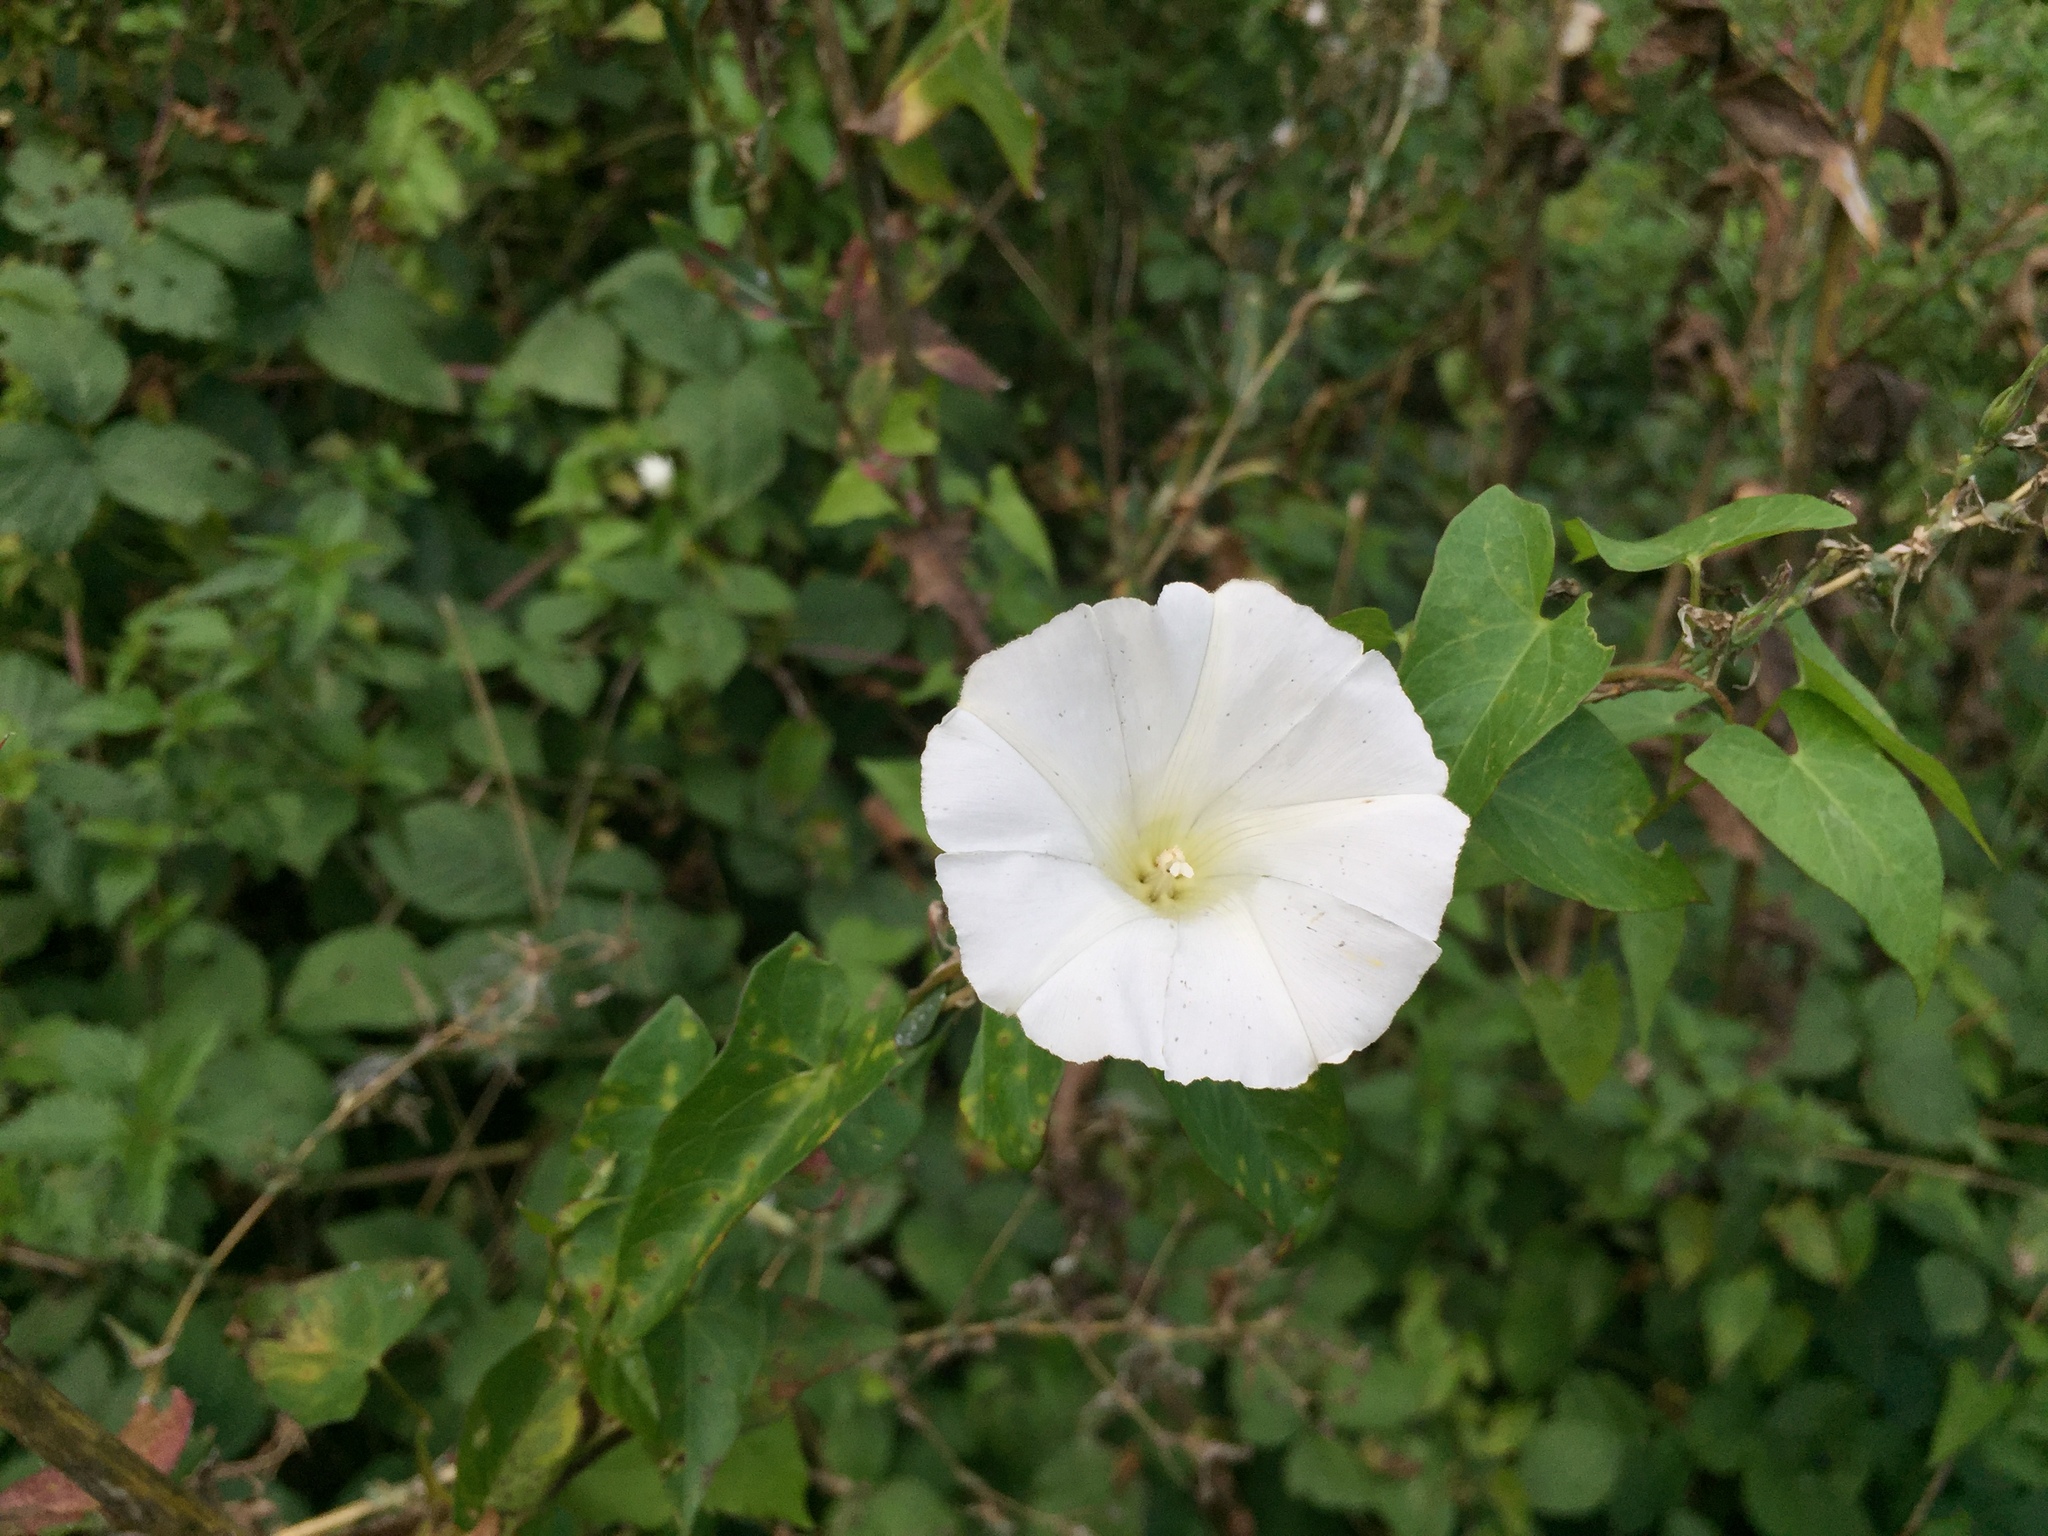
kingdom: Plantae
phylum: Tracheophyta
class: Magnoliopsida
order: Solanales
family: Convolvulaceae
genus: Calystegia
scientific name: Calystegia sepium
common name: Hedge bindweed
